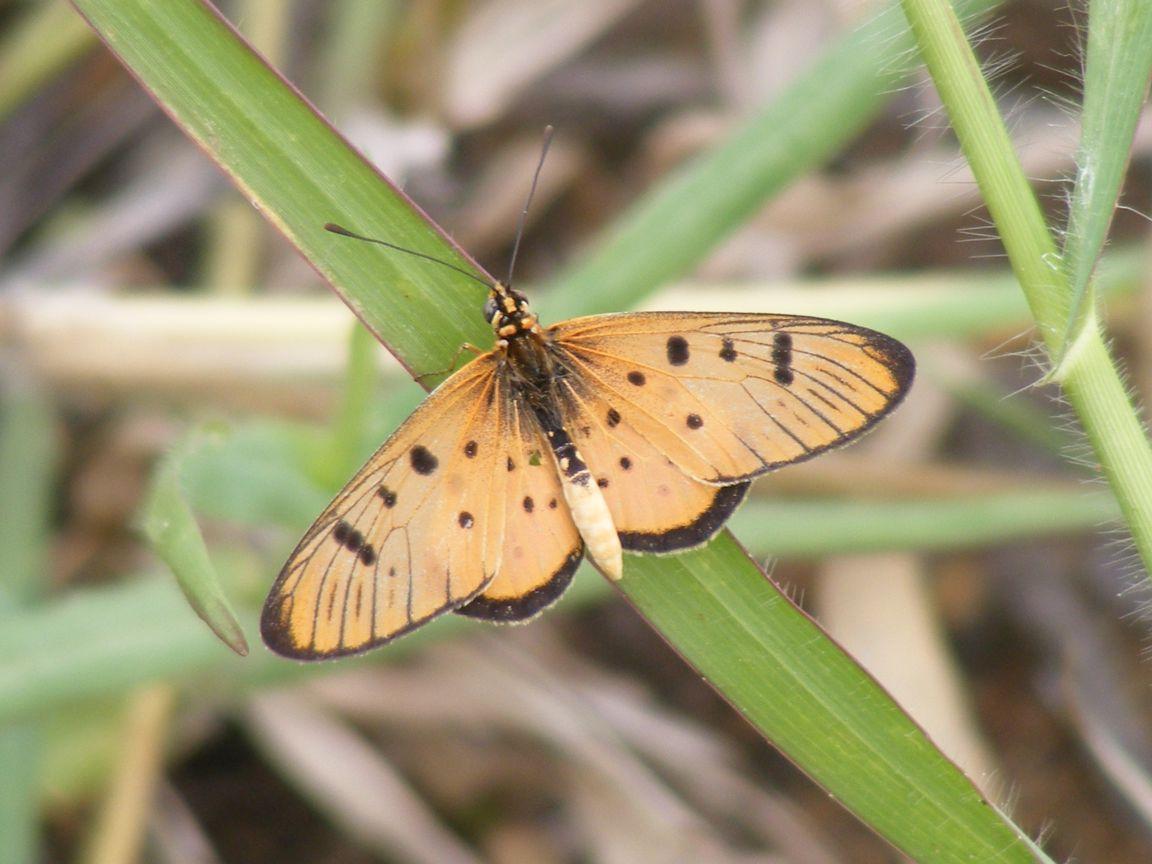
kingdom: Animalia
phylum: Arthropoda
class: Insecta
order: Lepidoptera
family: Nymphalidae
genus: Stephenia
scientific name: Stephenia
